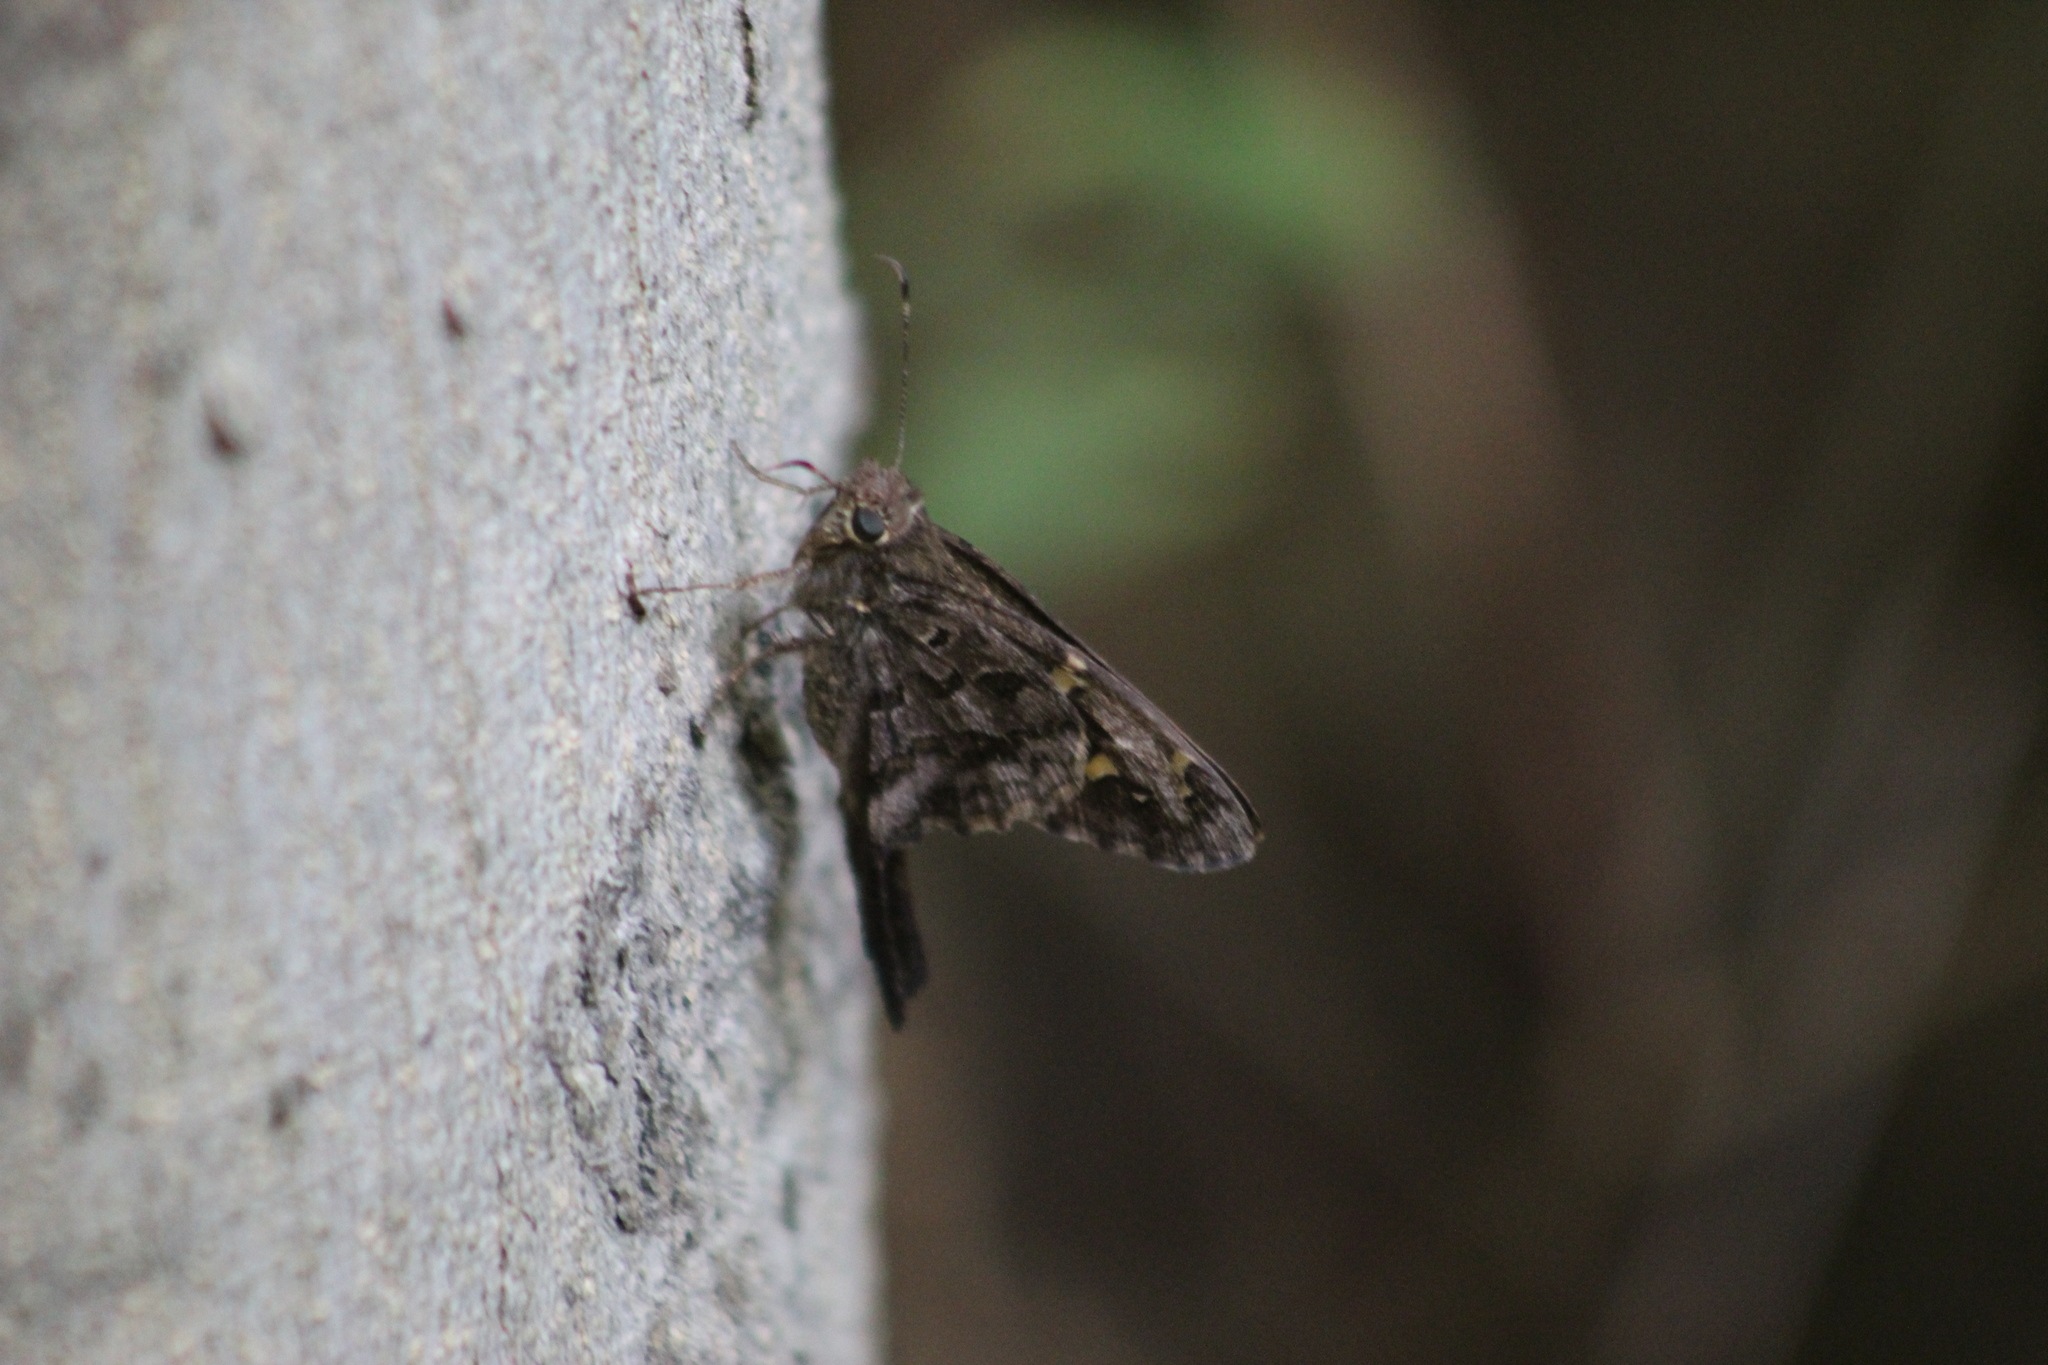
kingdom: Animalia
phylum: Arthropoda
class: Insecta
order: Lepidoptera
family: Hesperiidae
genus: Thorybes
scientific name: Thorybes
